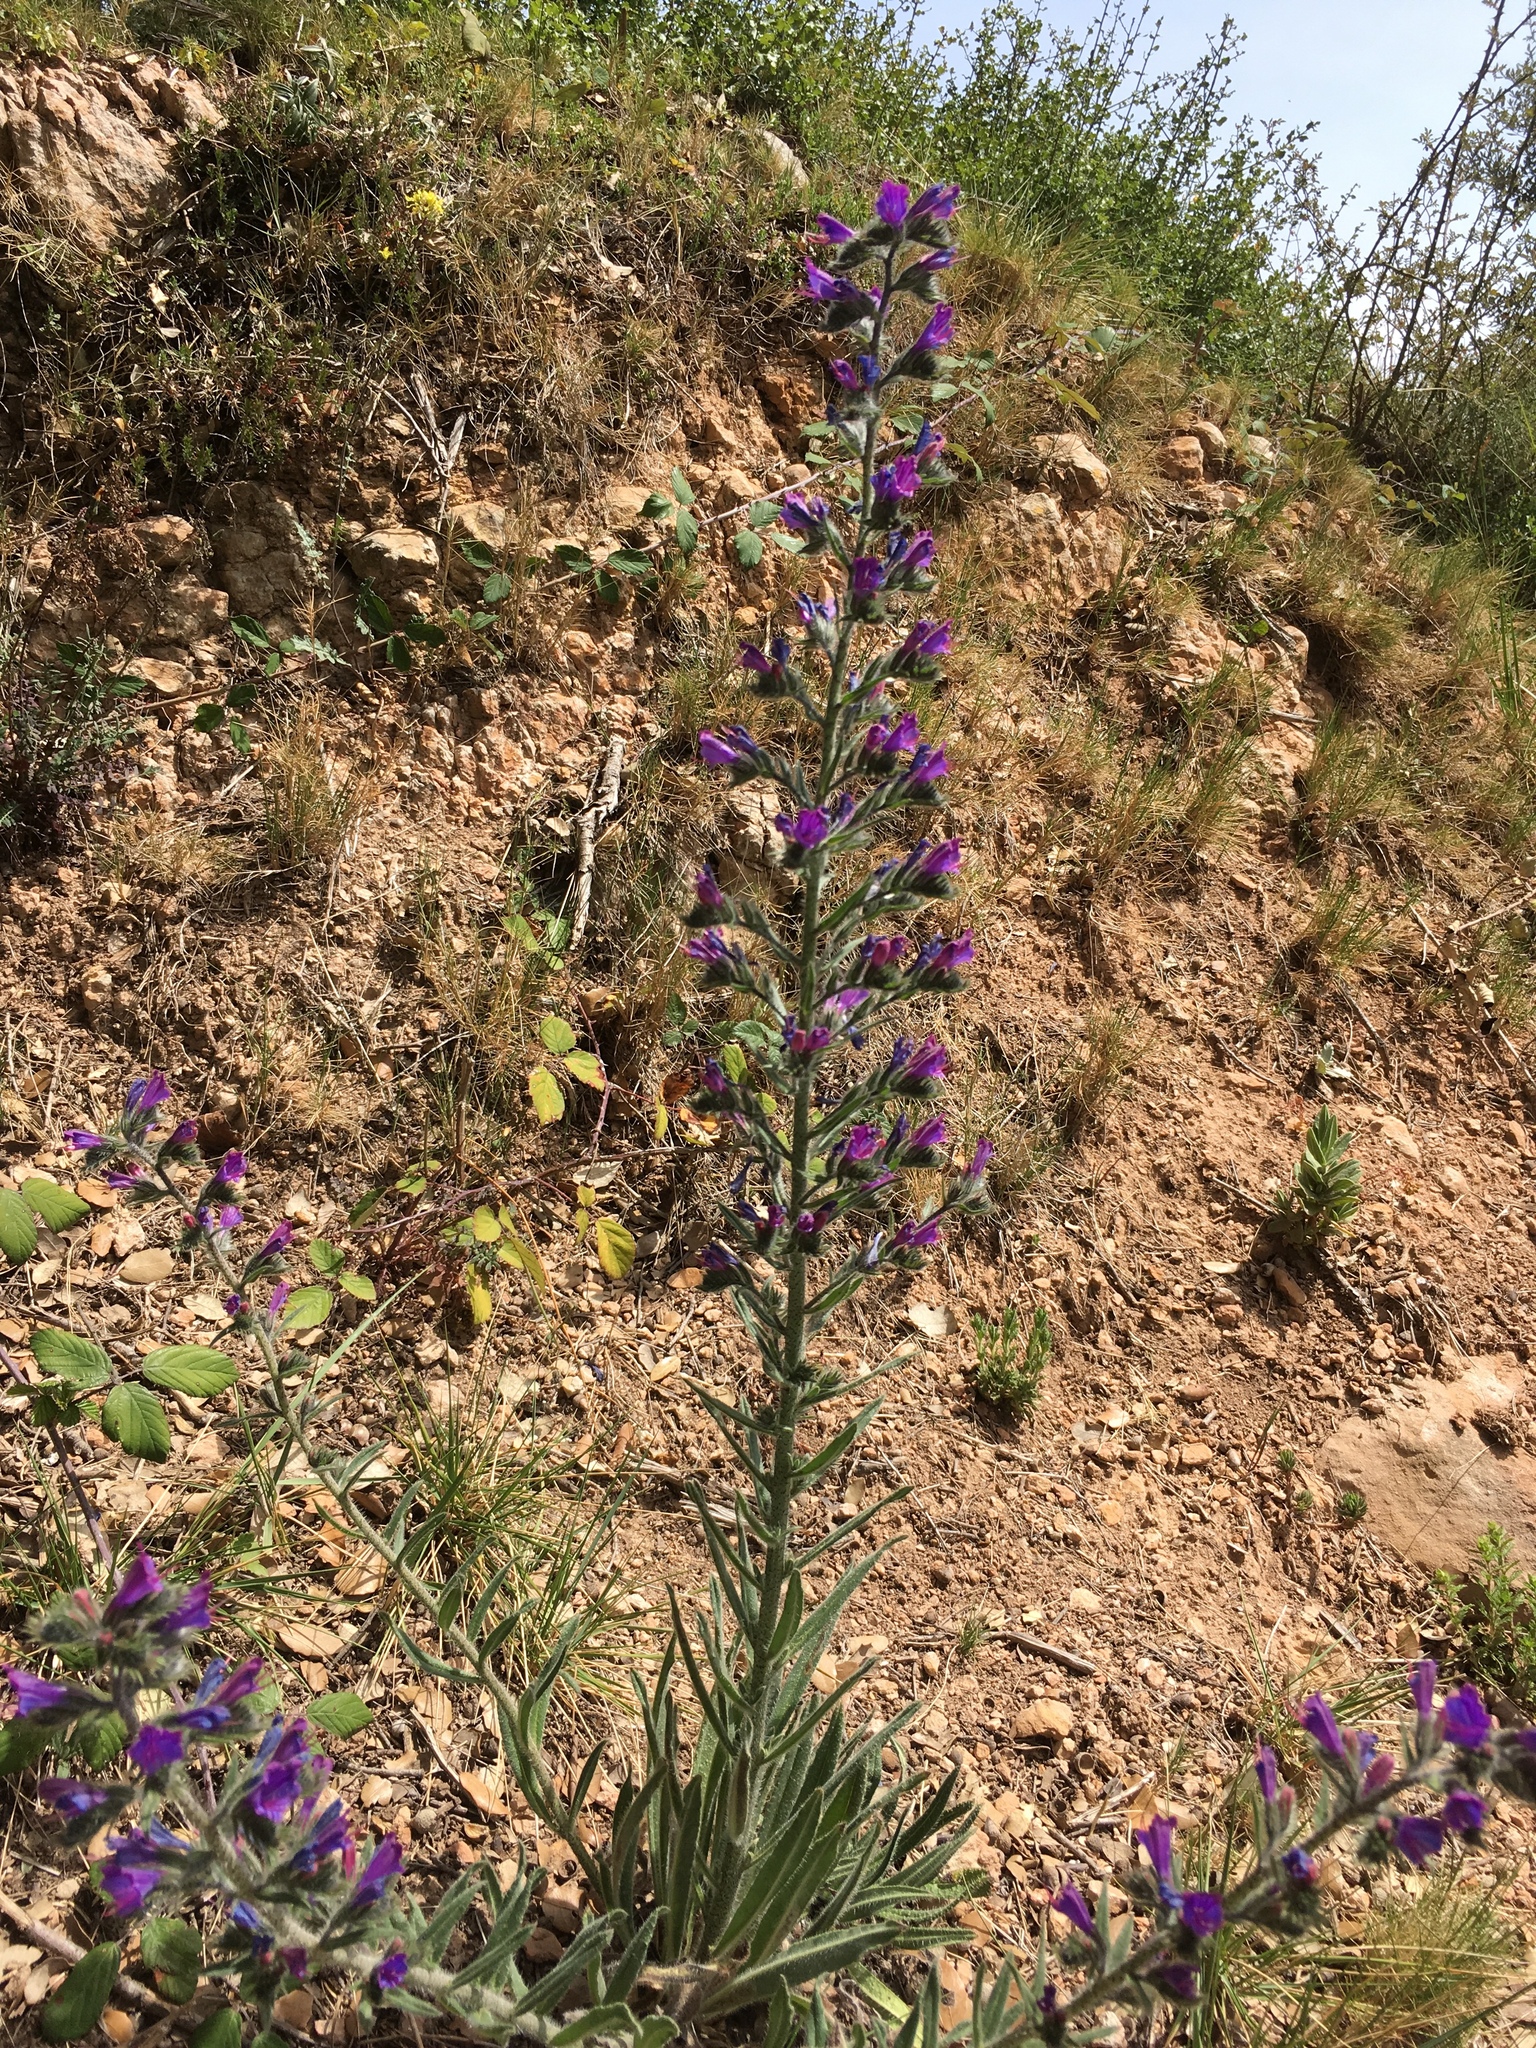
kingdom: Plantae
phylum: Tracheophyta
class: Magnoliopsida
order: Boraginales
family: Boraginaceae
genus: Echium
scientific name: Echium vulgare
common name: Common viper's bugloss
